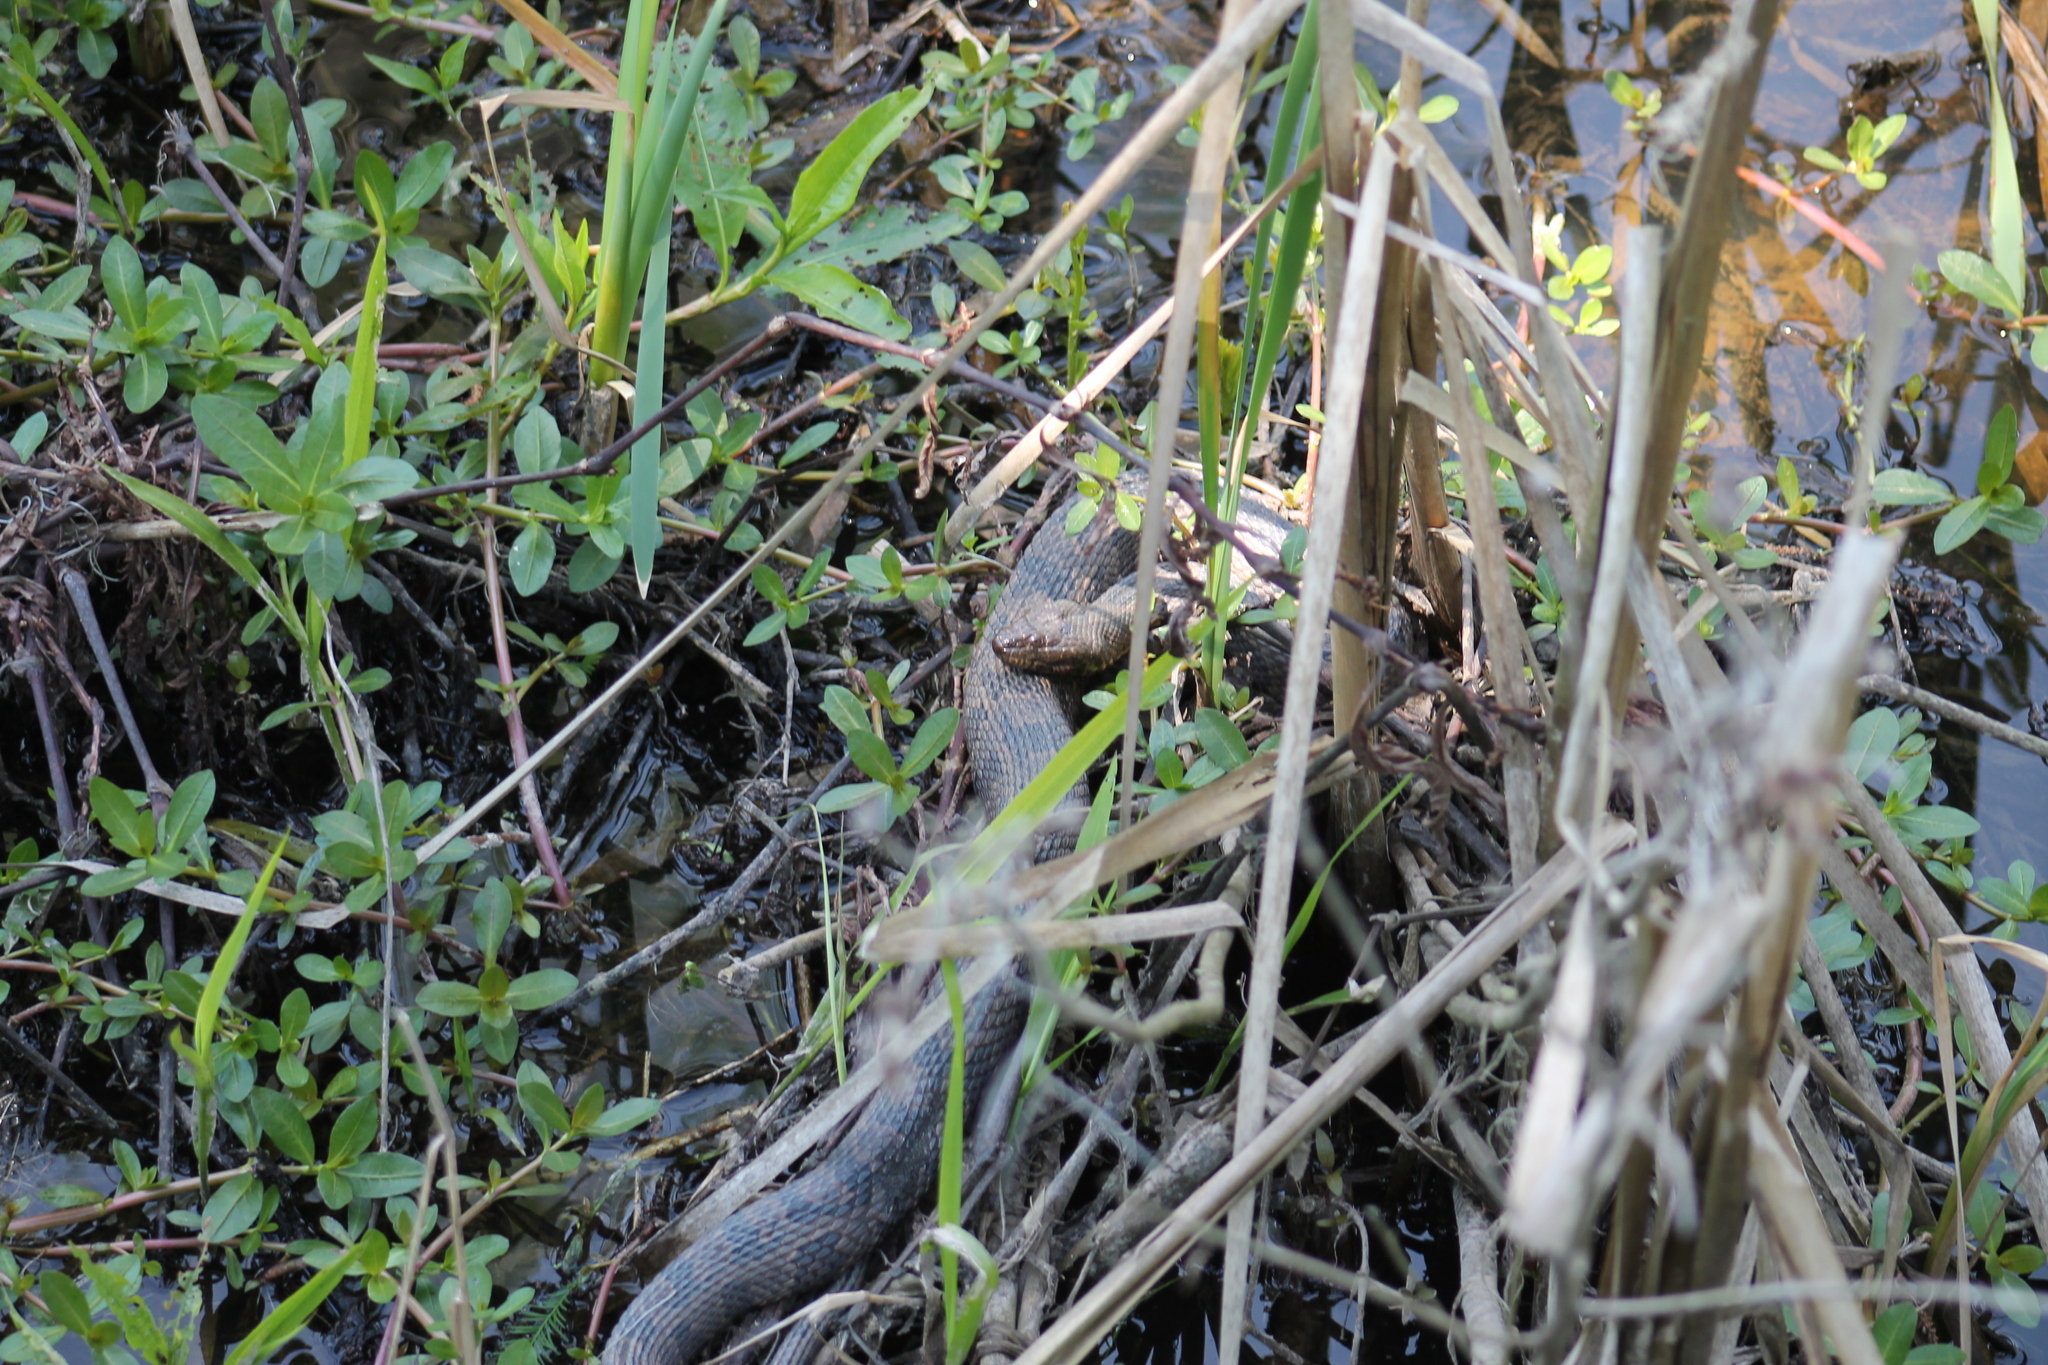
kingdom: Animalia
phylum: Chordata
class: Squamata
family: Colubridae
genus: Nerodia
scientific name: Nerodia taxispilota
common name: Brown water snake
